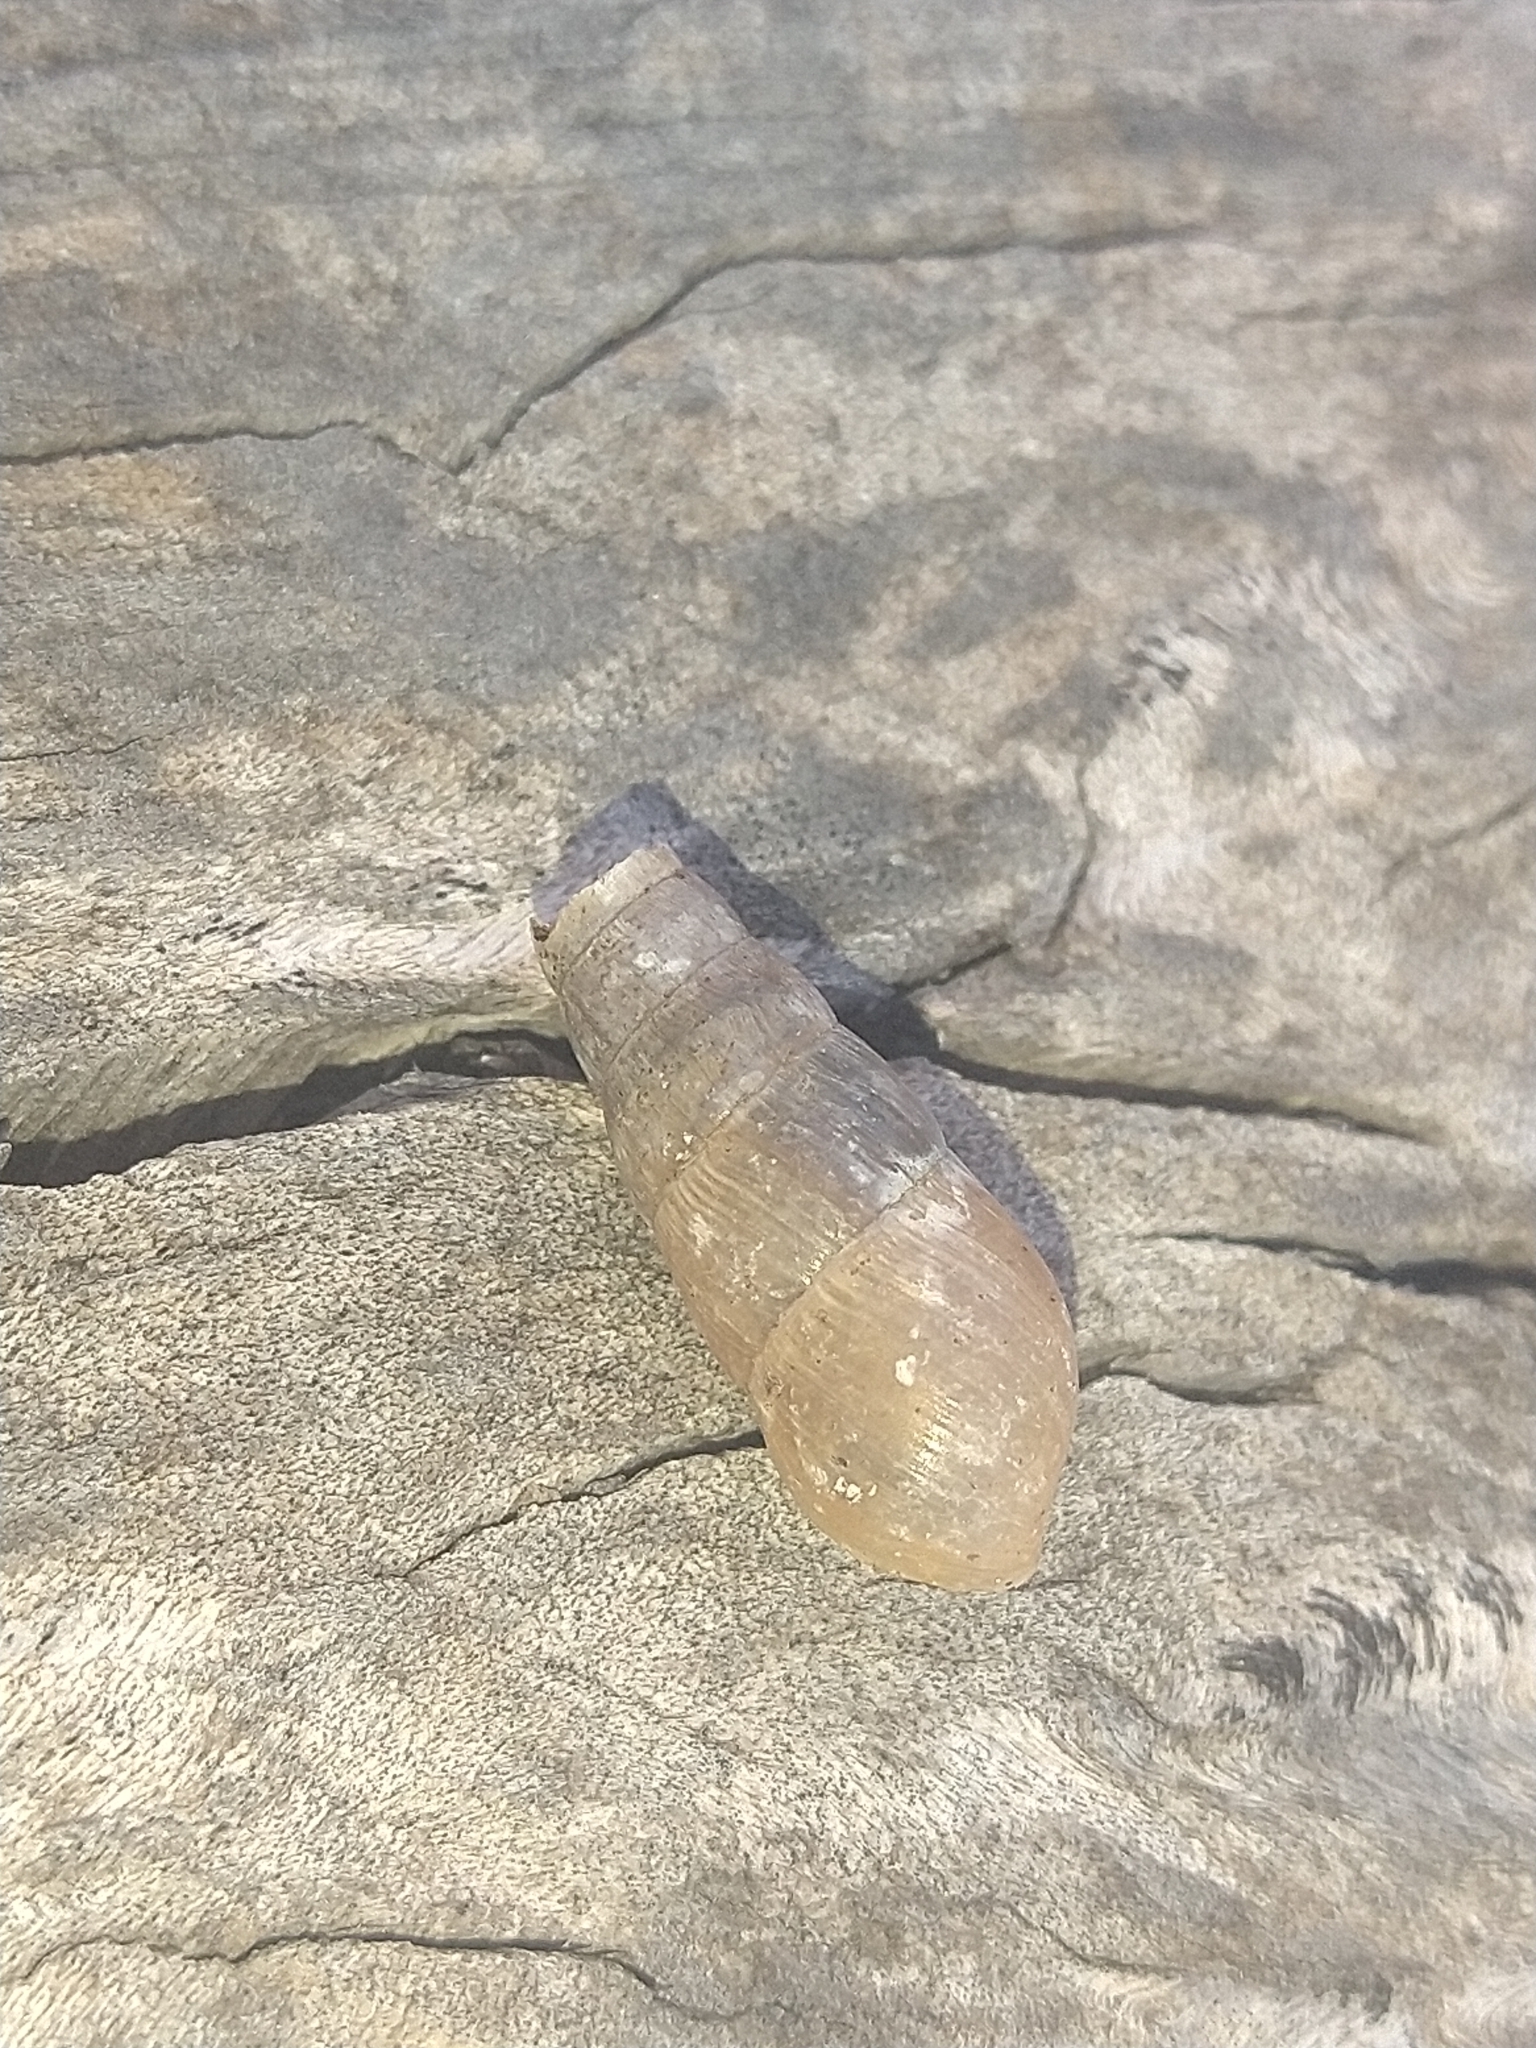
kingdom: Animalia
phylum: Mollusca
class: Gastropoda
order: Stylommatophora
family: Achatinidae
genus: Rumina
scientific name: Rumina decollata
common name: Decollate snail
